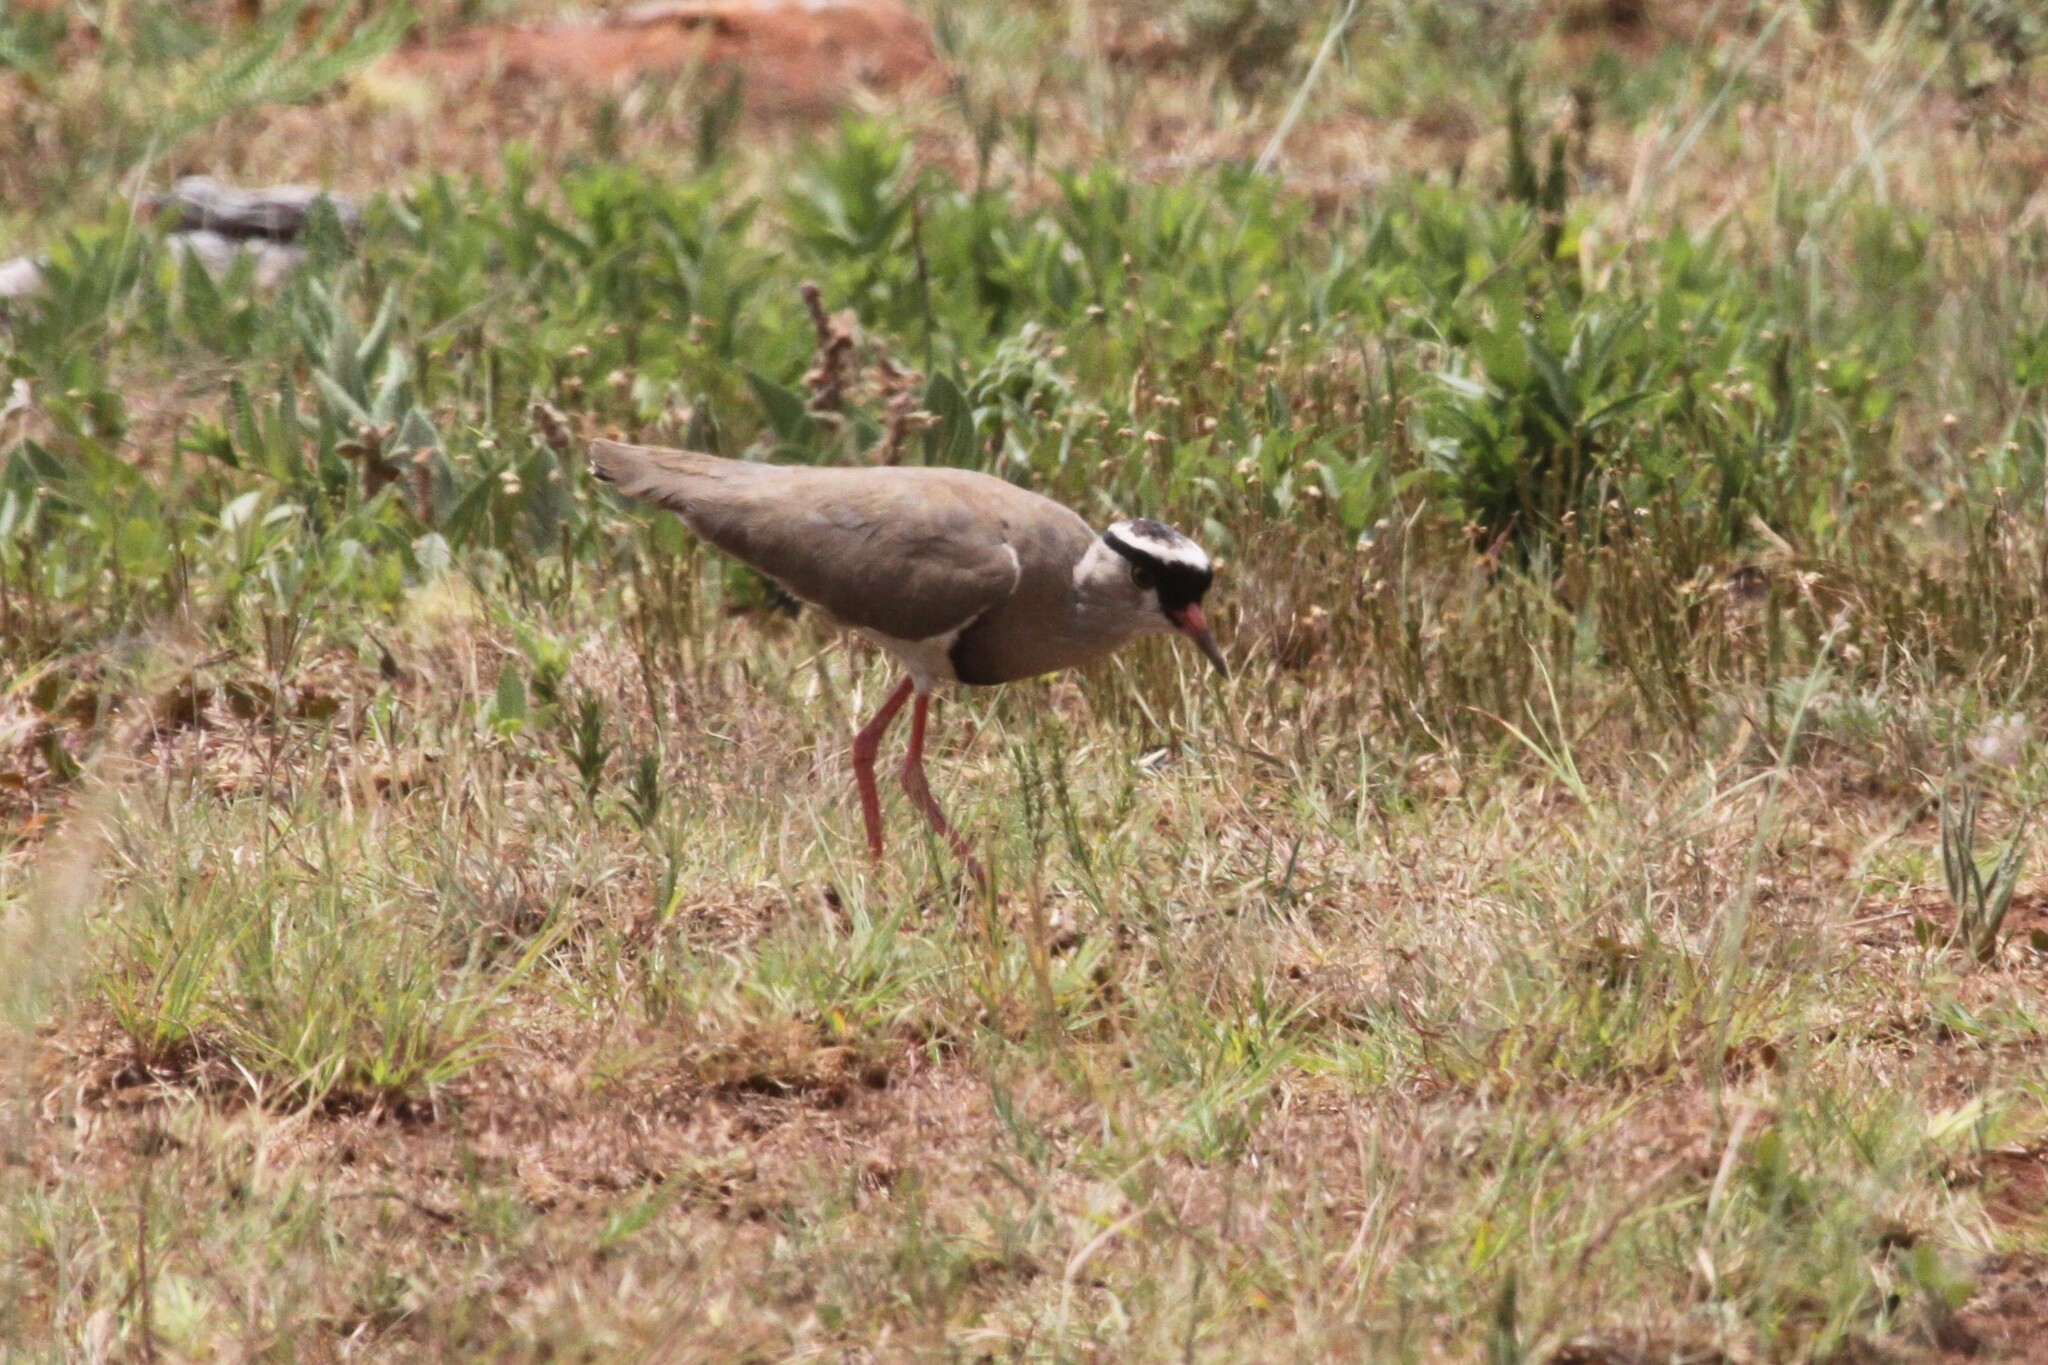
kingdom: Animalia
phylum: Chordata
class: Aves
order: Charadriiformes
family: Charadriidae
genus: Vanellus
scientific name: Vanellus coronatus
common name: Crowned lapwing
